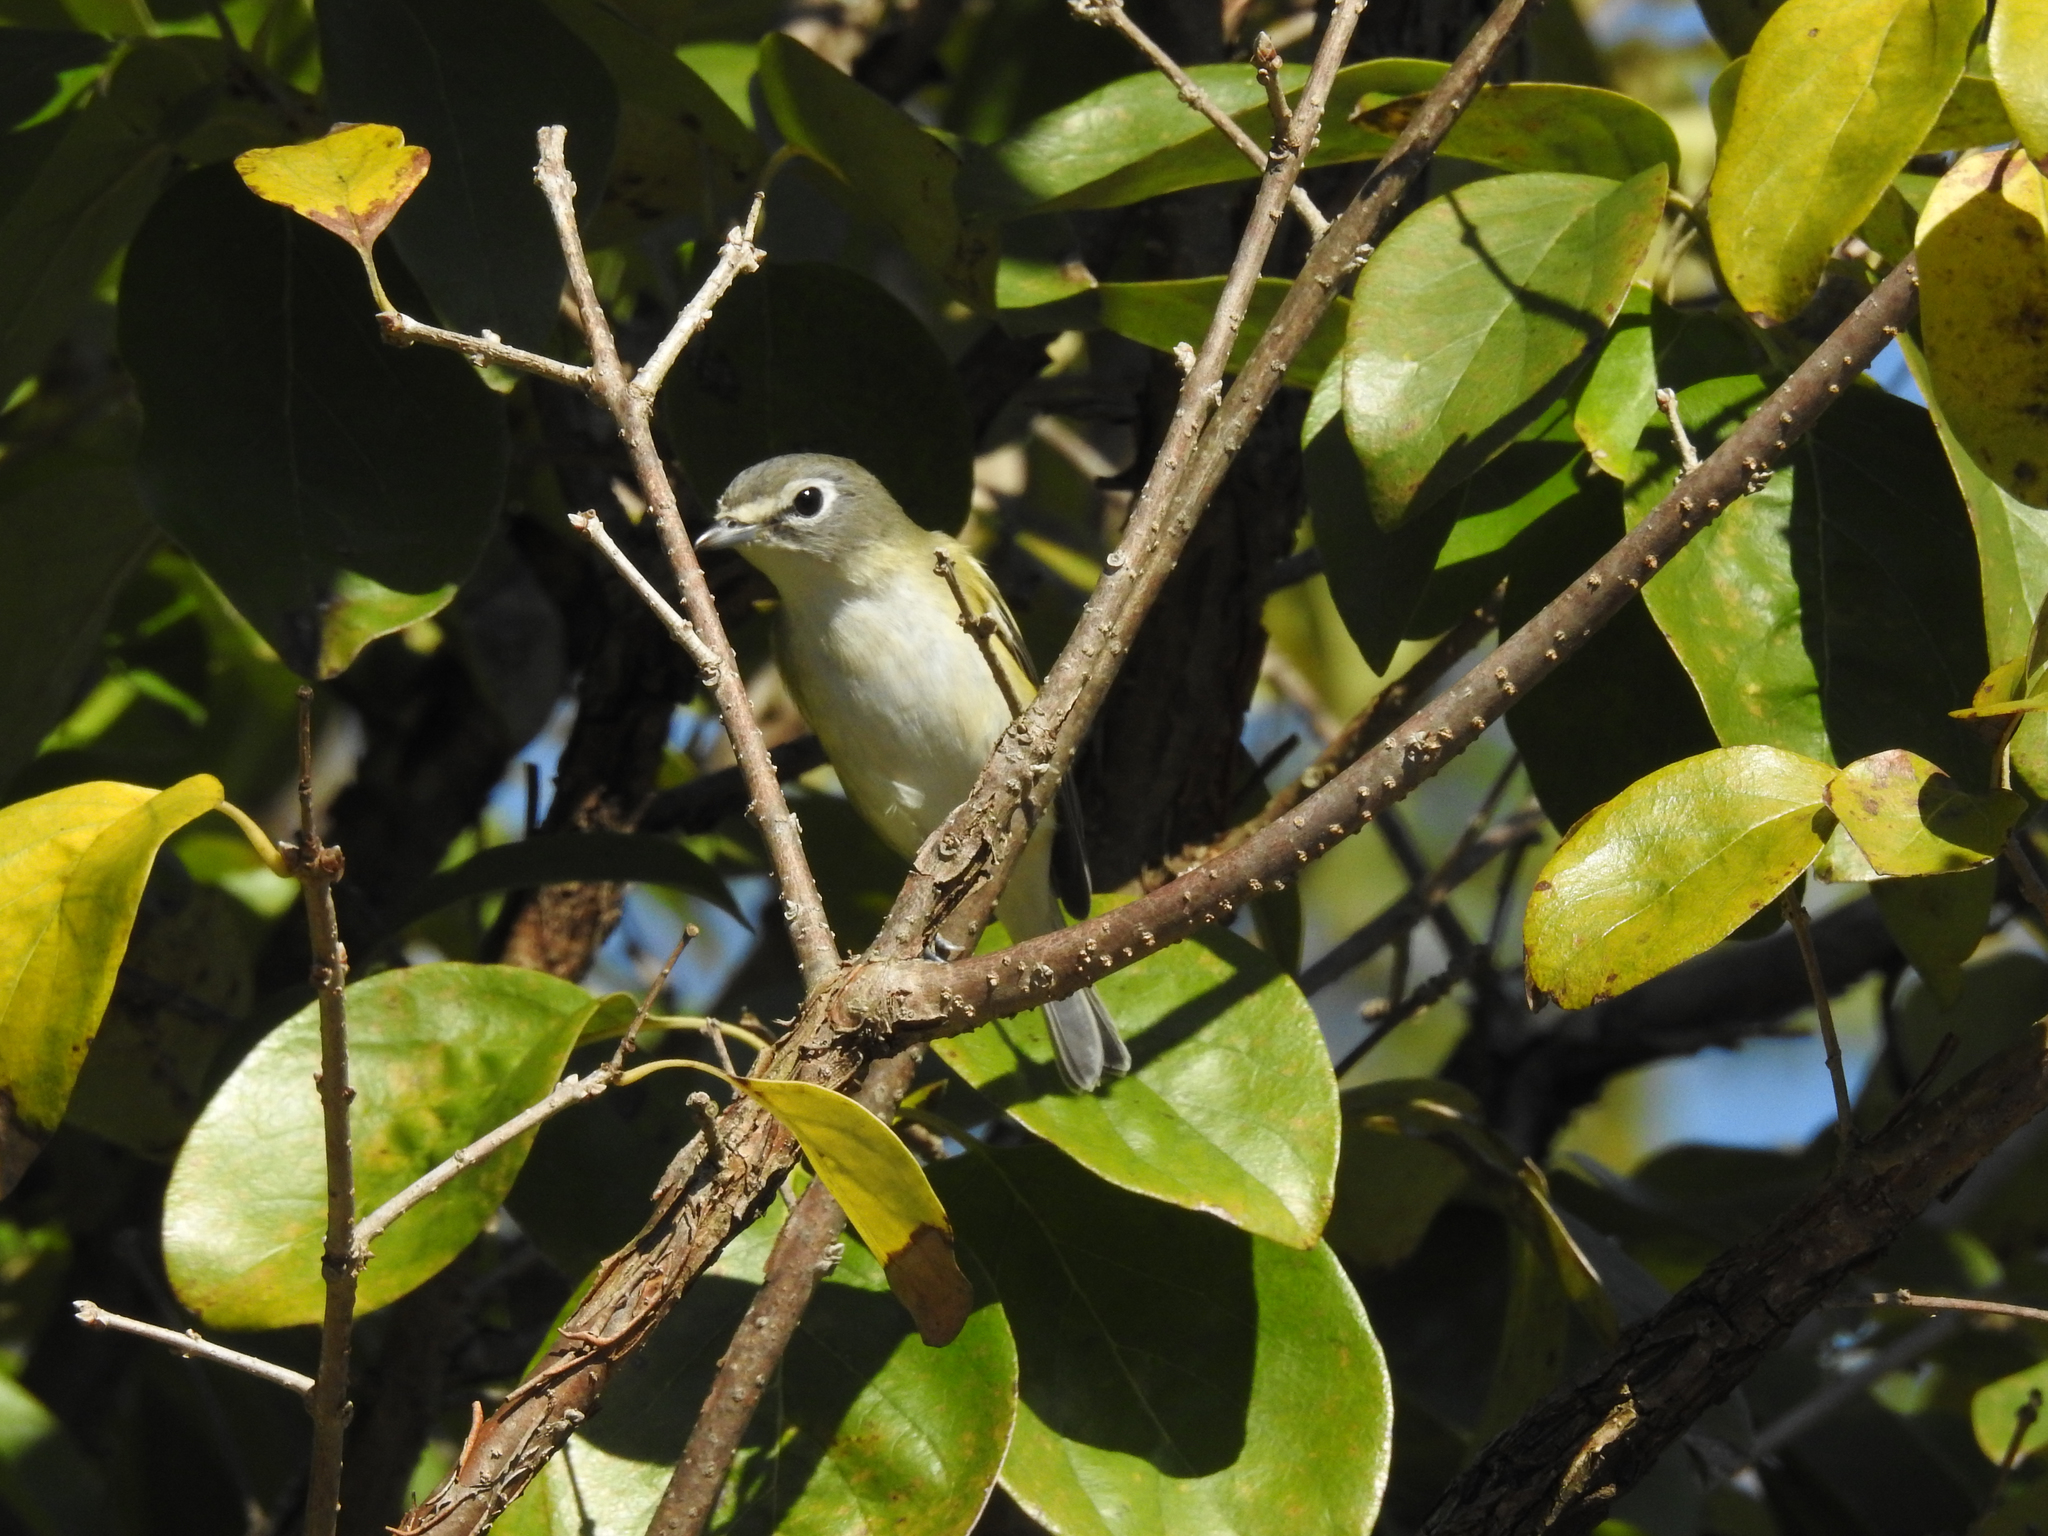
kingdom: Animalia
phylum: Chordata
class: Aves
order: Passeriformes
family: Vireonidae
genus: Vireo
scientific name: Vireo solitarius
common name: Blue-headed vireo
